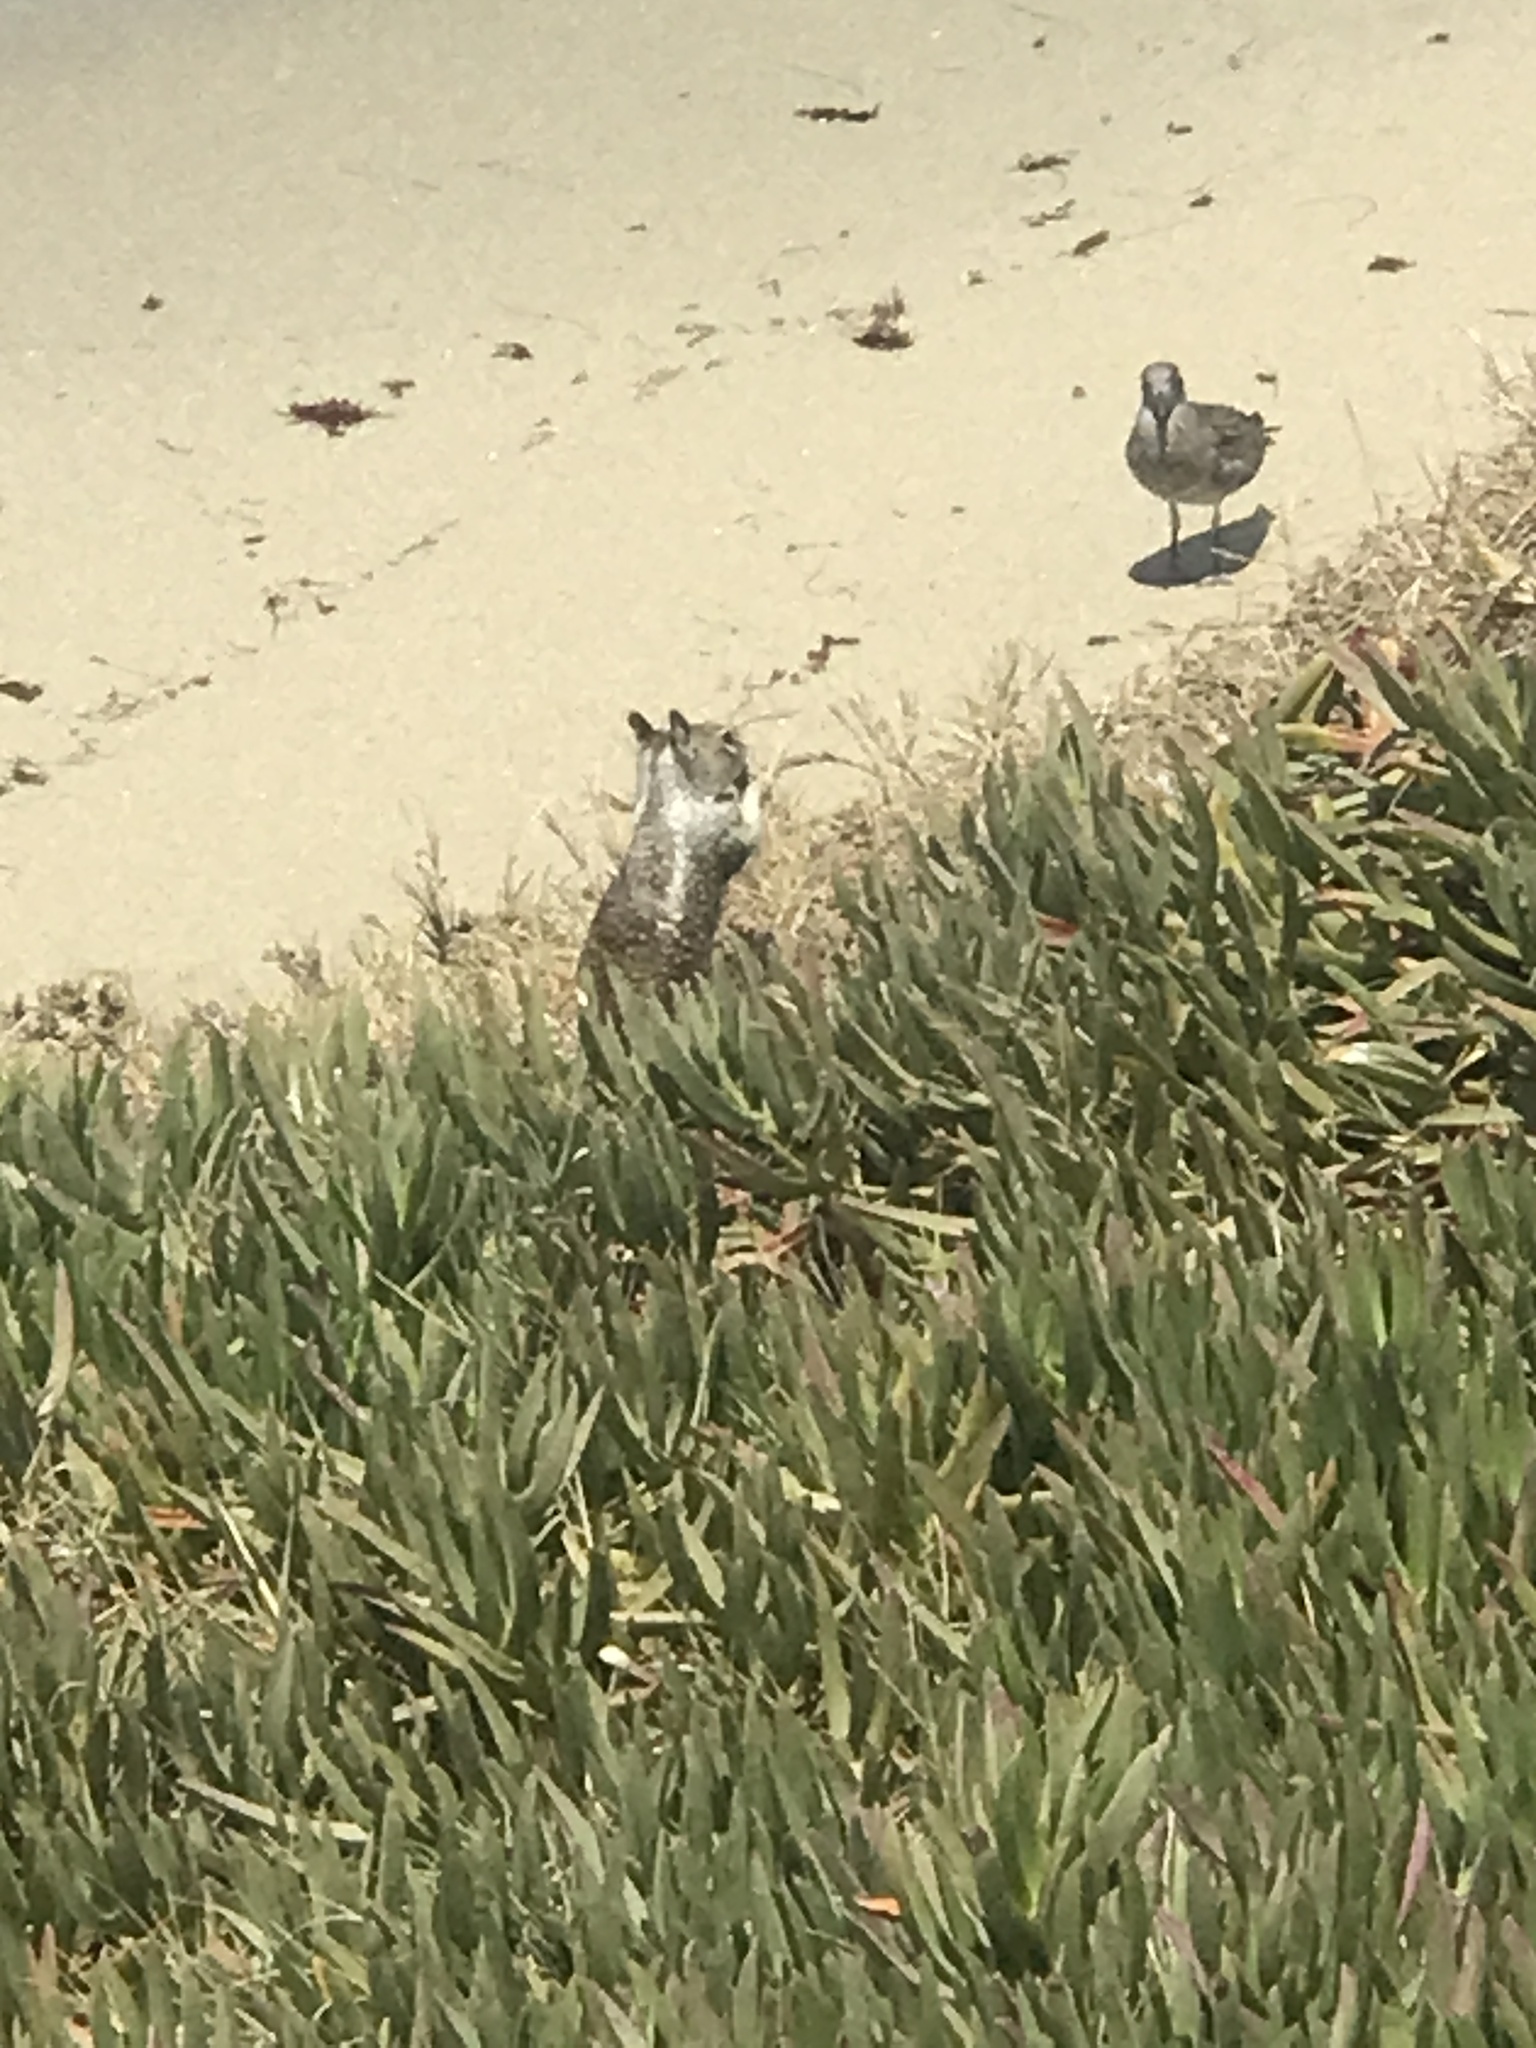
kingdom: Animalia
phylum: Chordata
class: Mammalia
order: Rodentia
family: Sciuridae
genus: Otospermophilus
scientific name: Otospermophilus beecheyi
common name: California ground squirrel
